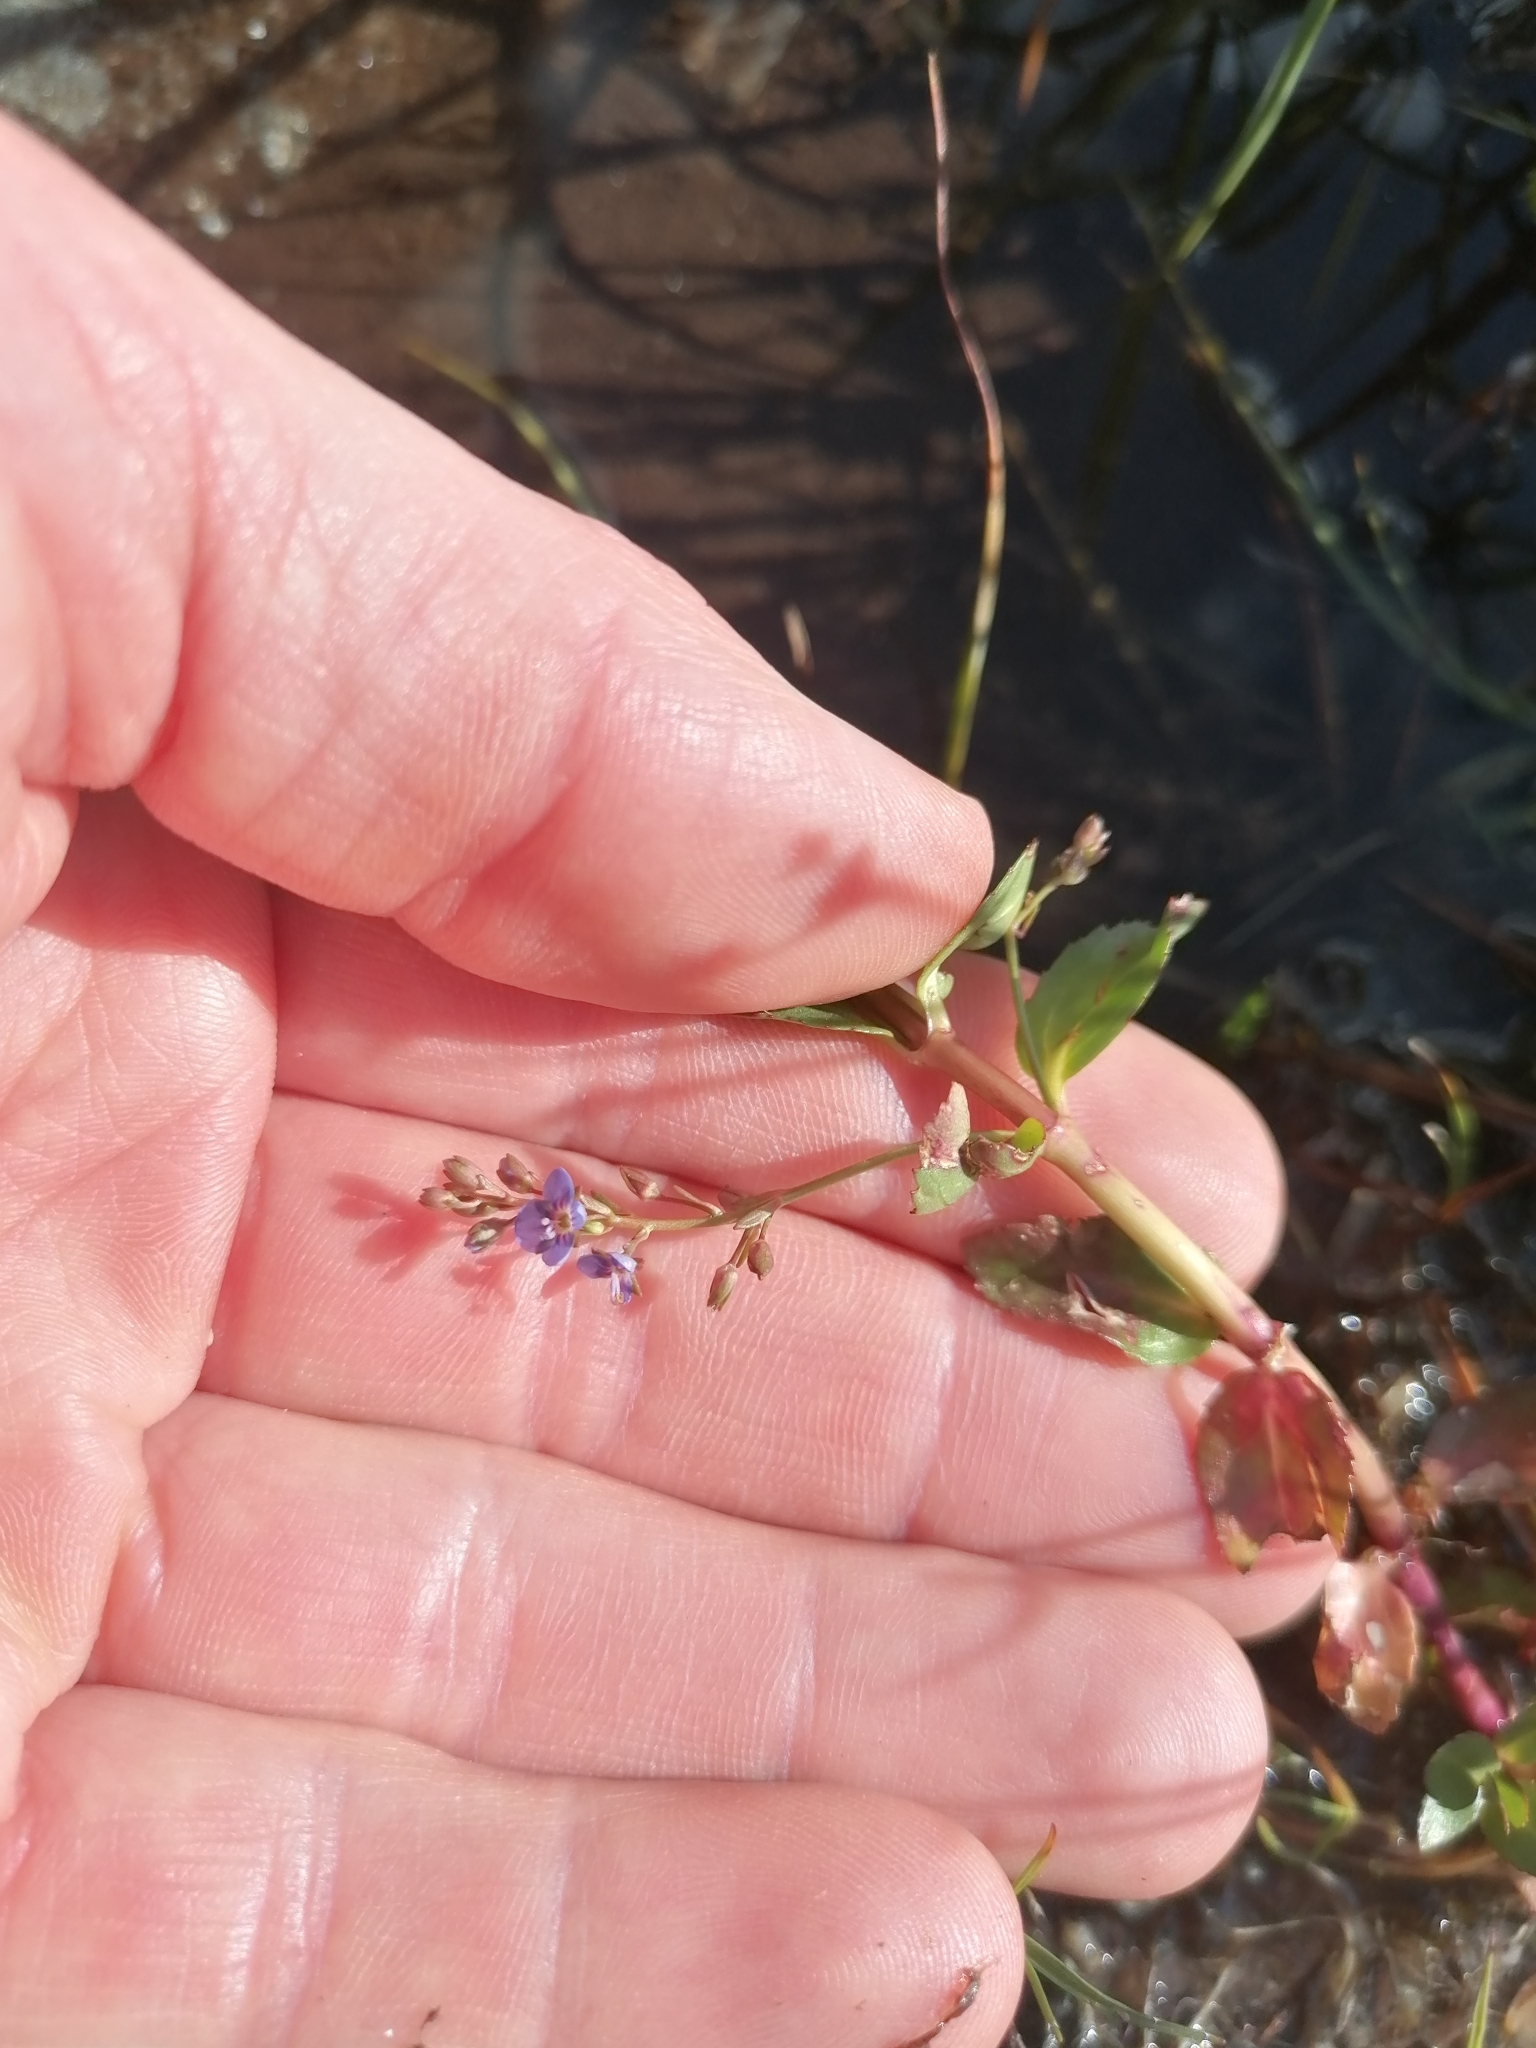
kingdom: Plantae
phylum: Tracheophyta
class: Magnoliopsida
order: Lamiales
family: Plantaginaceae
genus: Veronica
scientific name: Veronica beccabunga
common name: Brooklime
